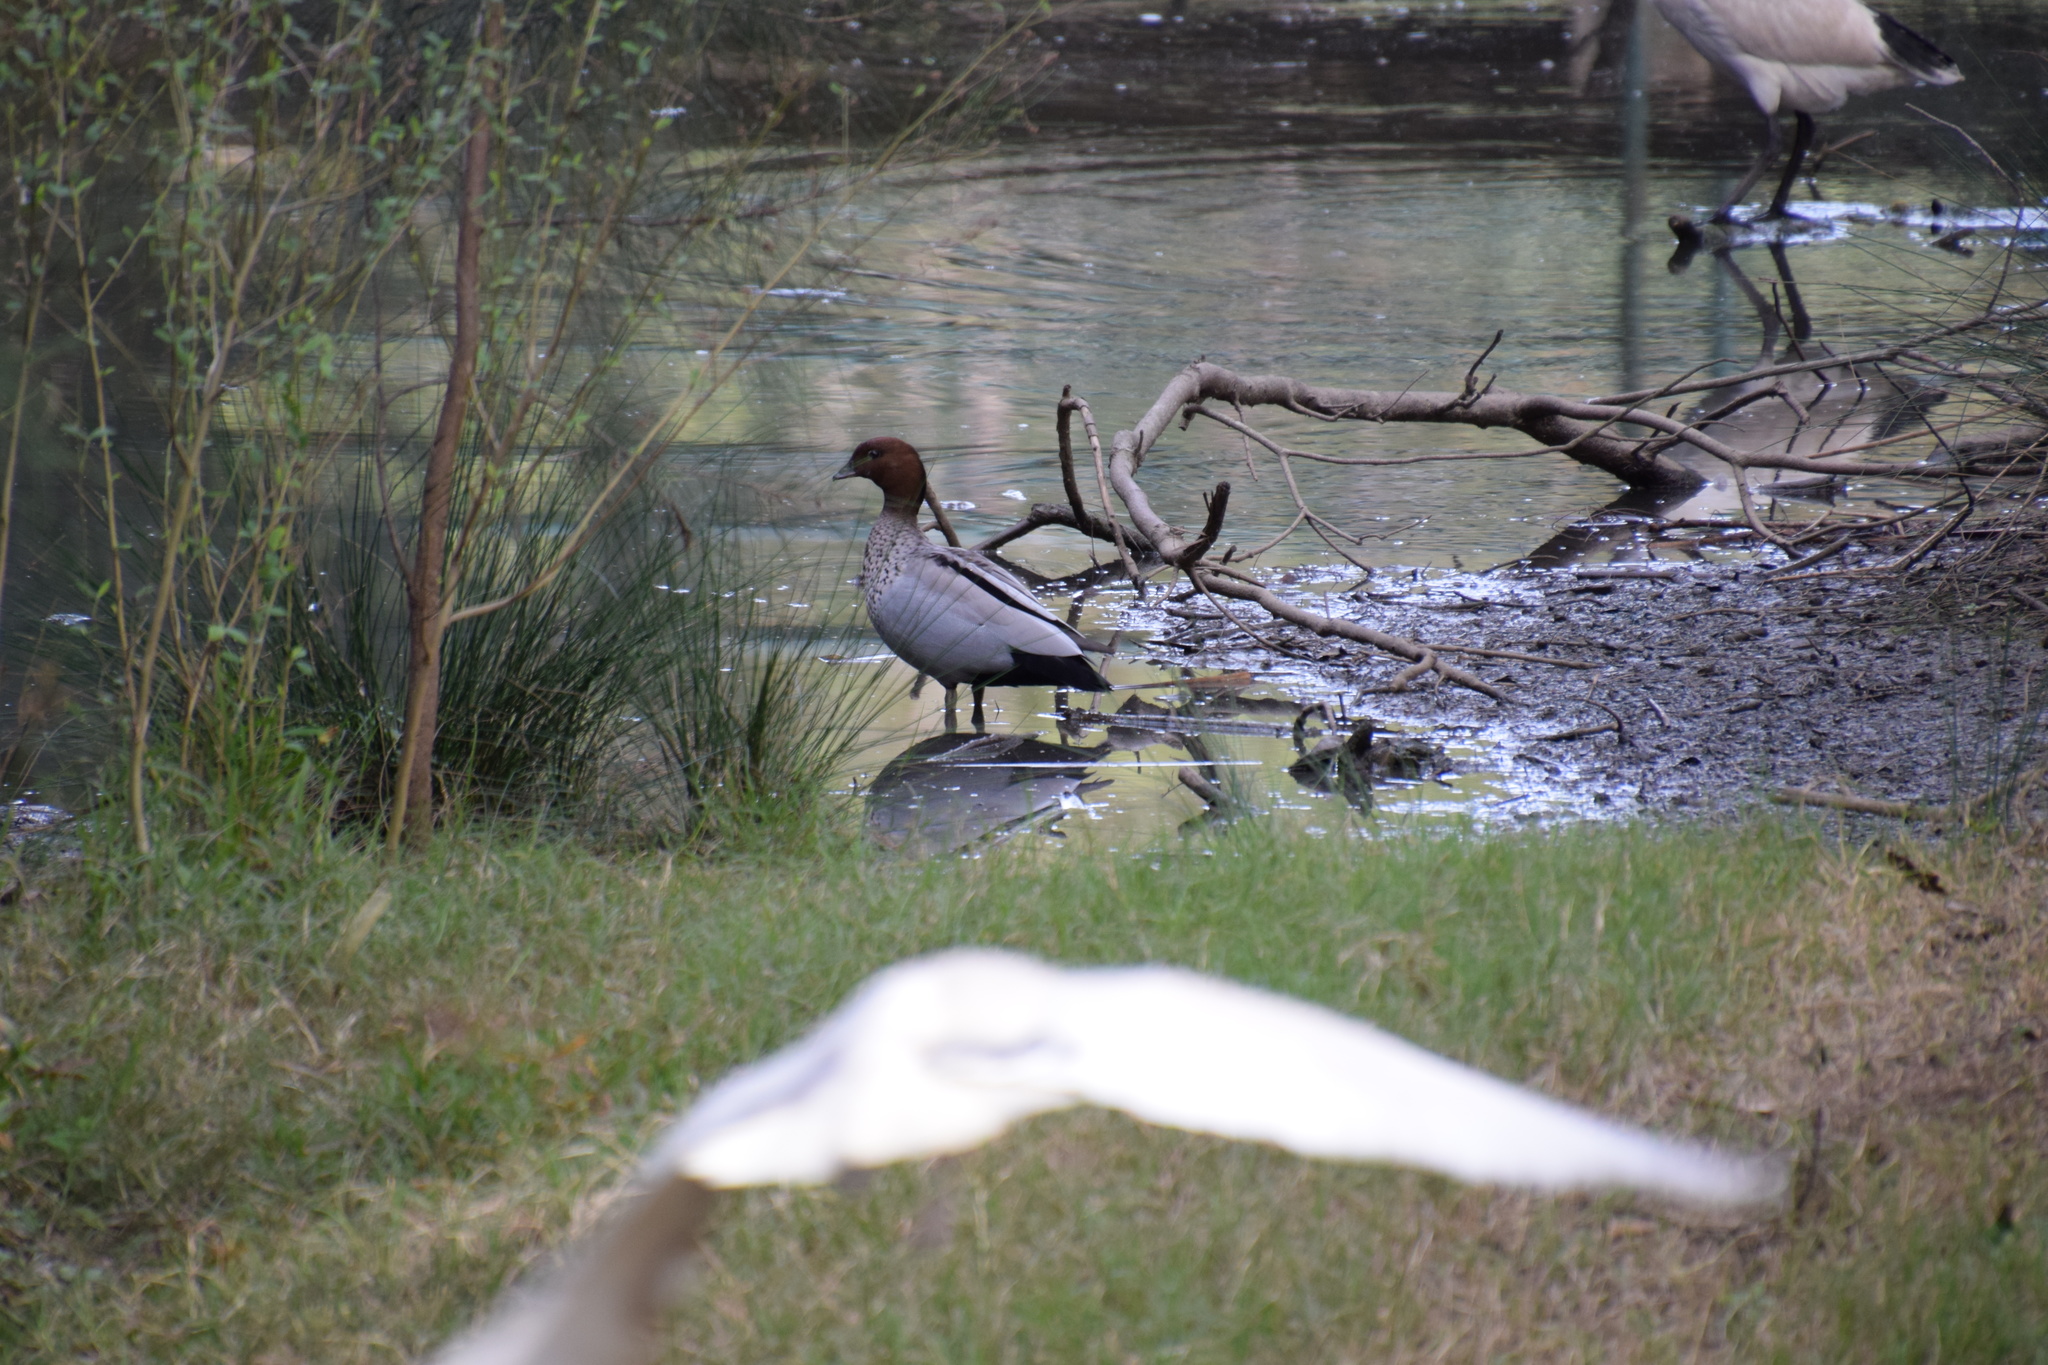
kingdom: Animalia
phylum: Chordata
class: Aves
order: Anseriformes
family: Anatidae
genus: Chenonetta
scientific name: Chenonetta jubata
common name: Maned duck
